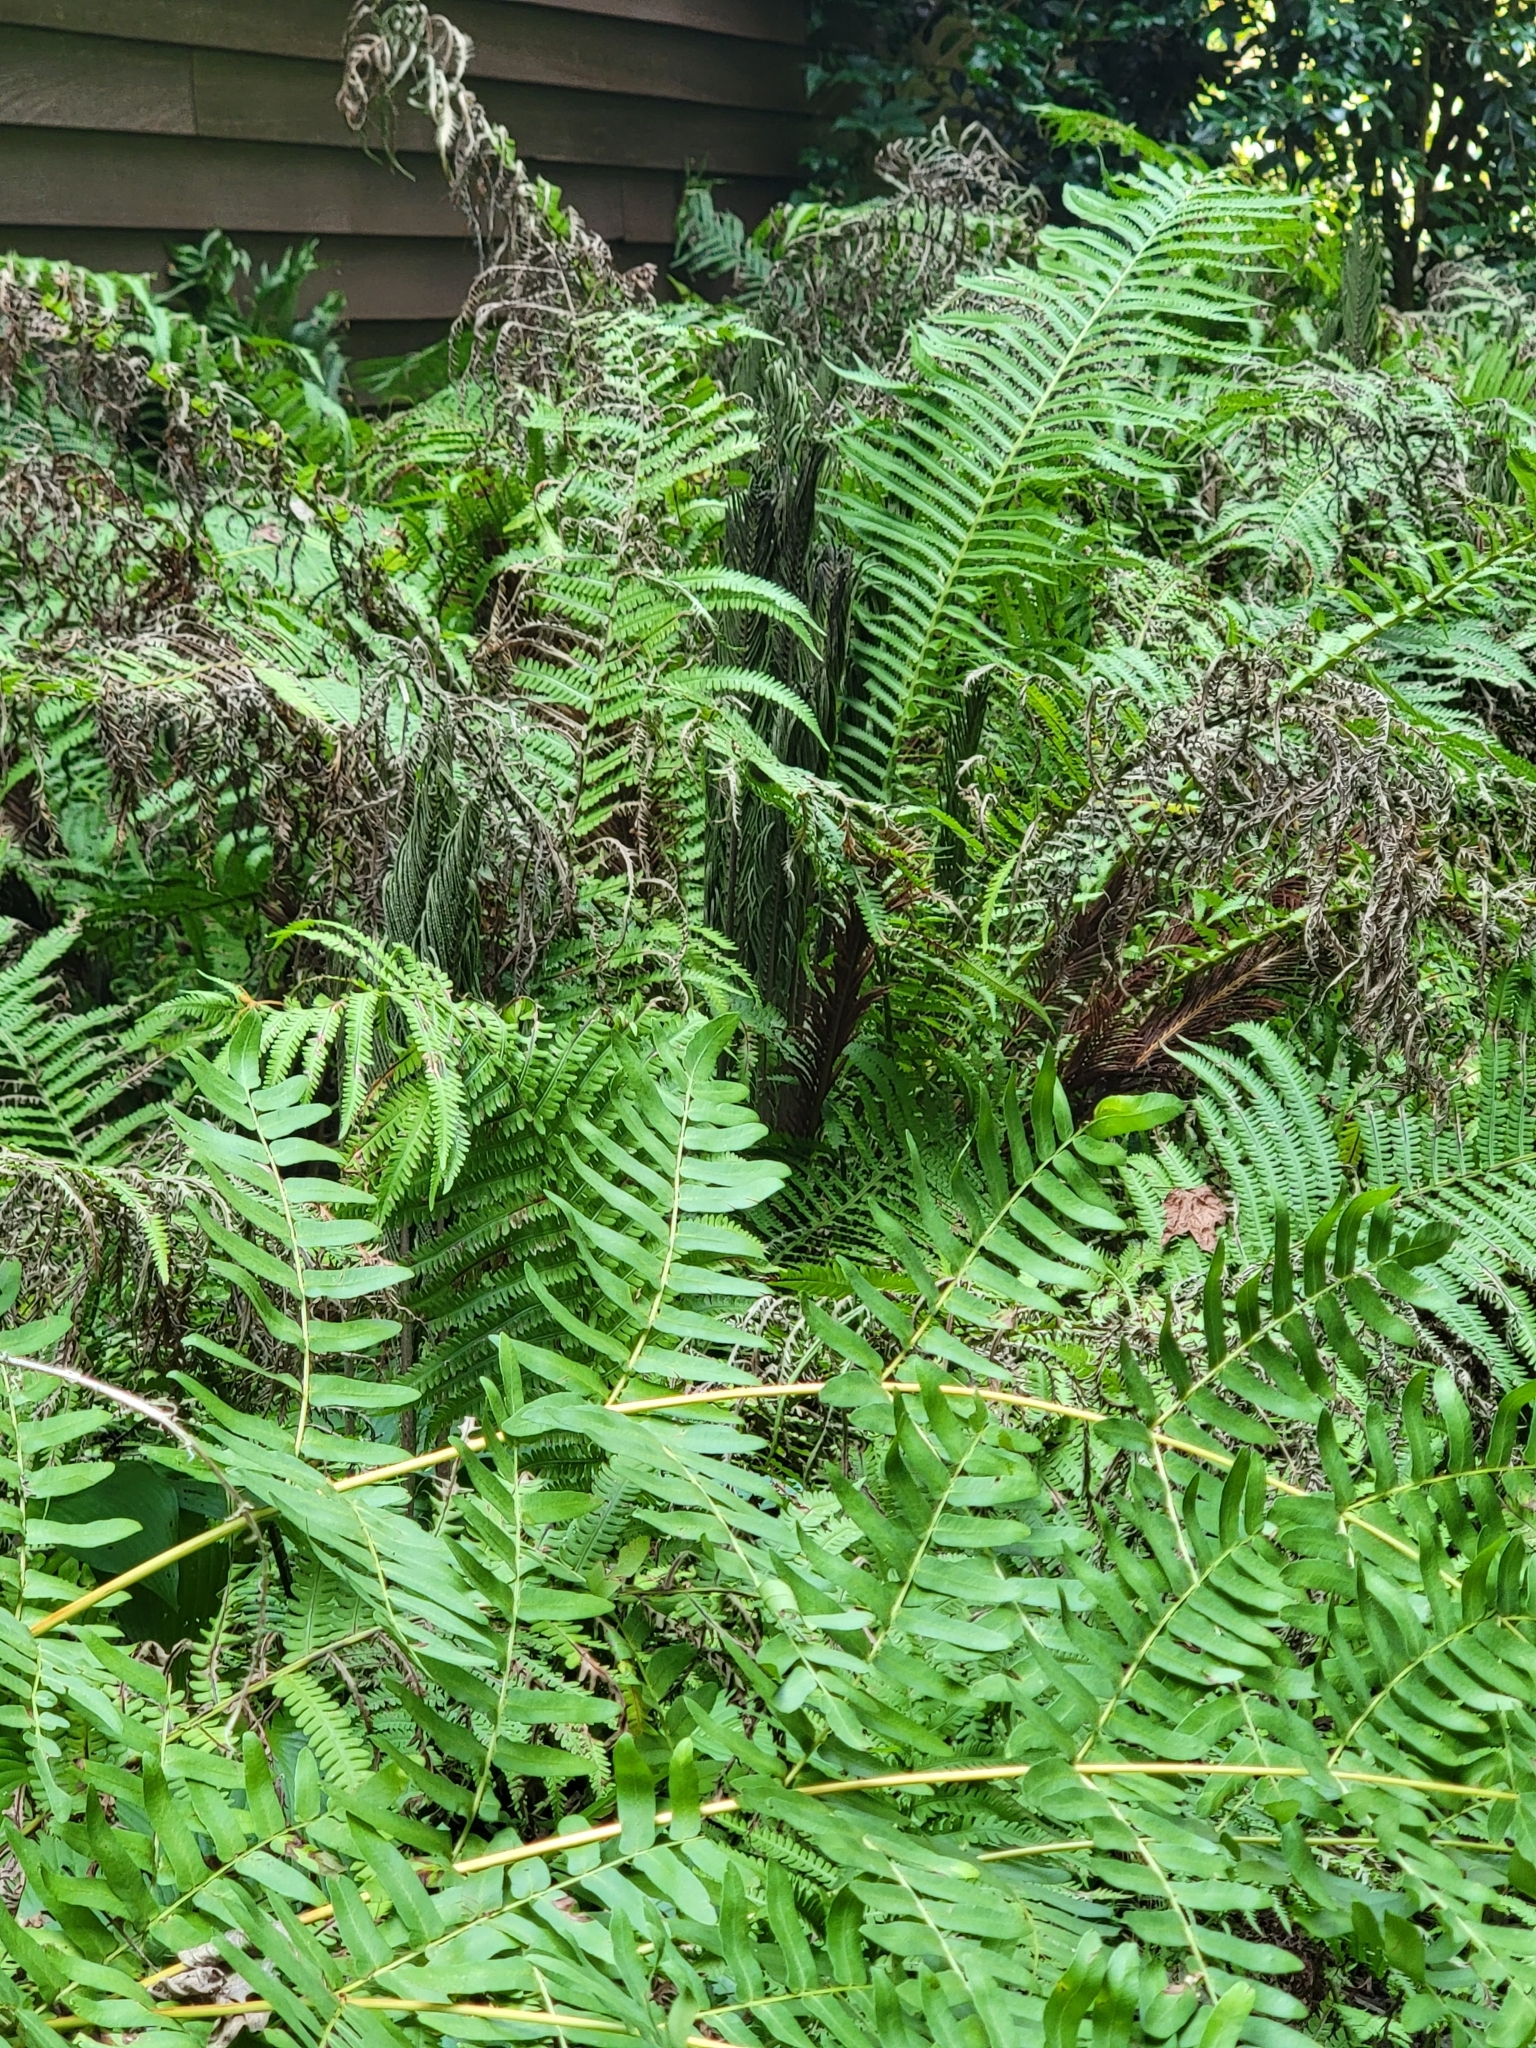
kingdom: Plantae
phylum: Tracheophyta
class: Polypodiopsida
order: Polypodiales
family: Onocleaceae
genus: Matteuccia
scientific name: Matteuccia struthiopteris
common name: Ostrich fern
